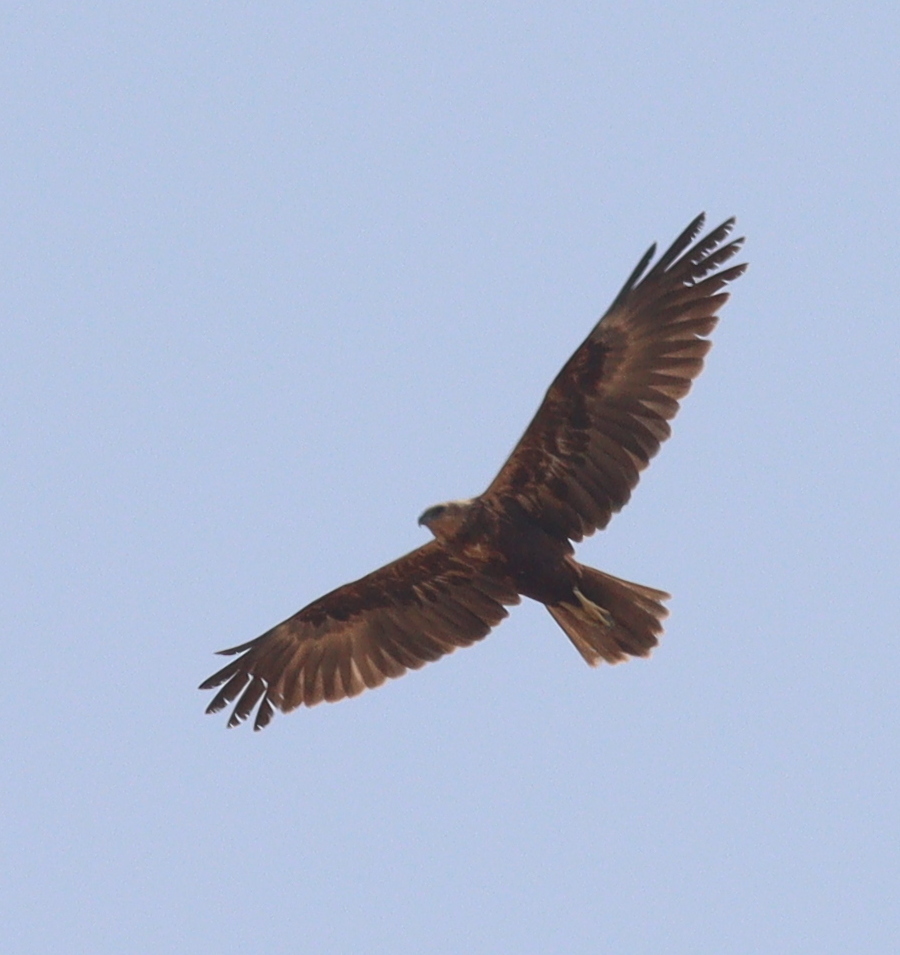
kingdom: Animalia
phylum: Chordata
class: Aves
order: Accipitriformes
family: Accipitridae
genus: Circus
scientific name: Circus aeruginosus
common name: Western marsh harrier
